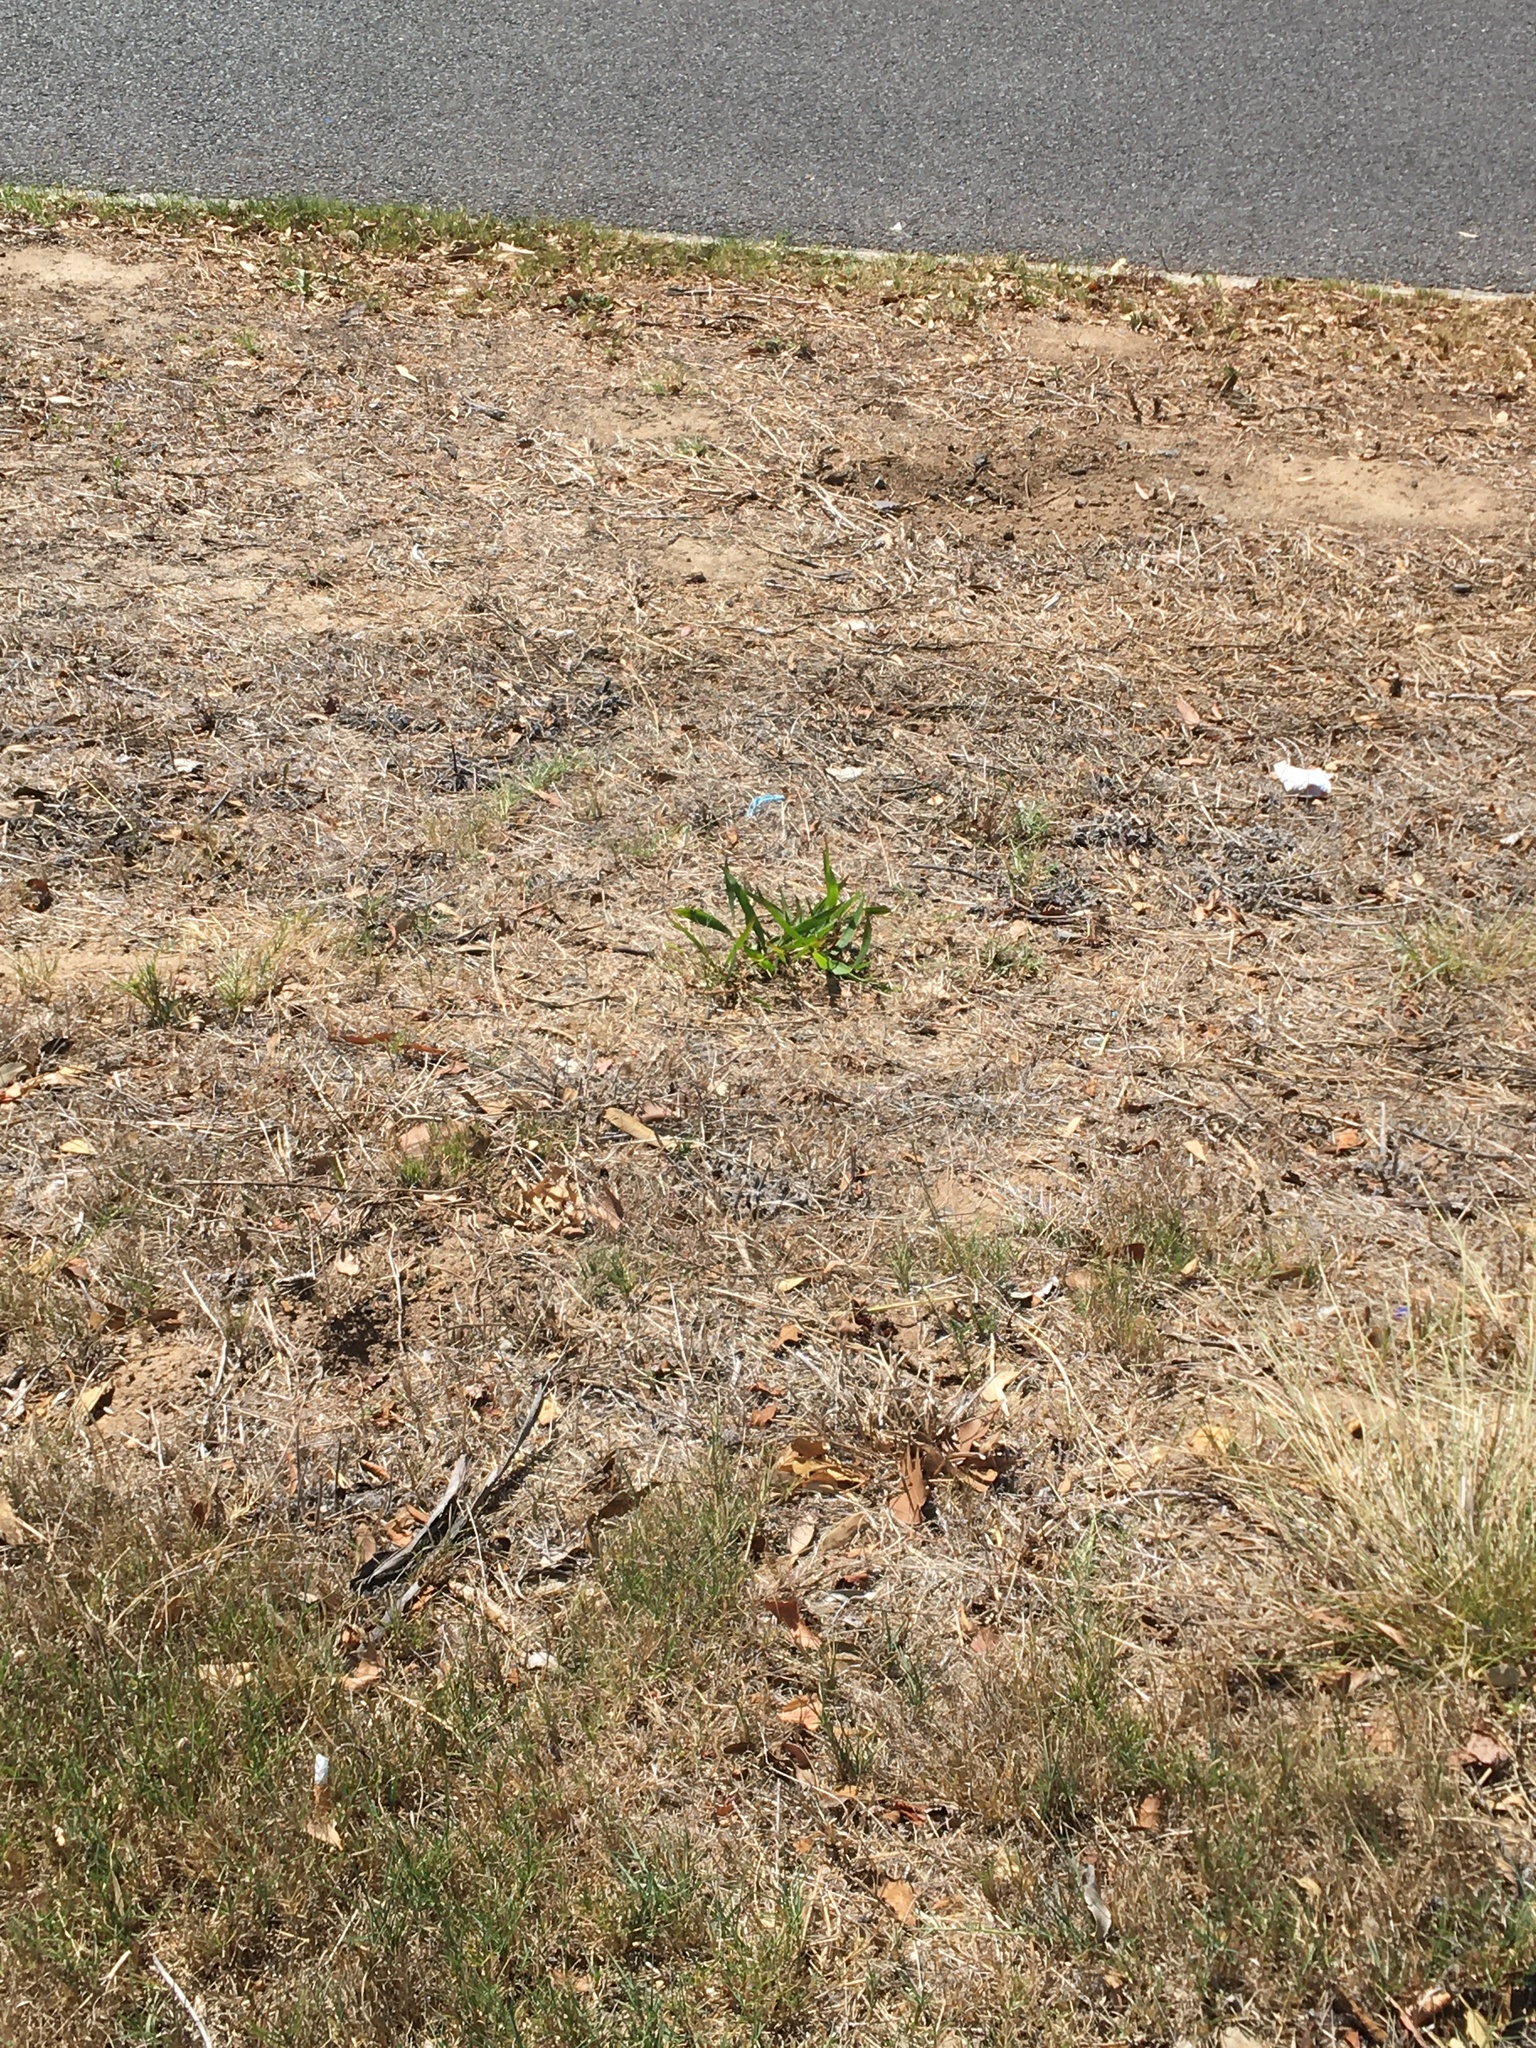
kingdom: Plantae
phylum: Tracheophyta
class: Magnoliopsida
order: Fabales
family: Fabaceae
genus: Acacia
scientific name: Acacia saligna
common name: Orange wattle
